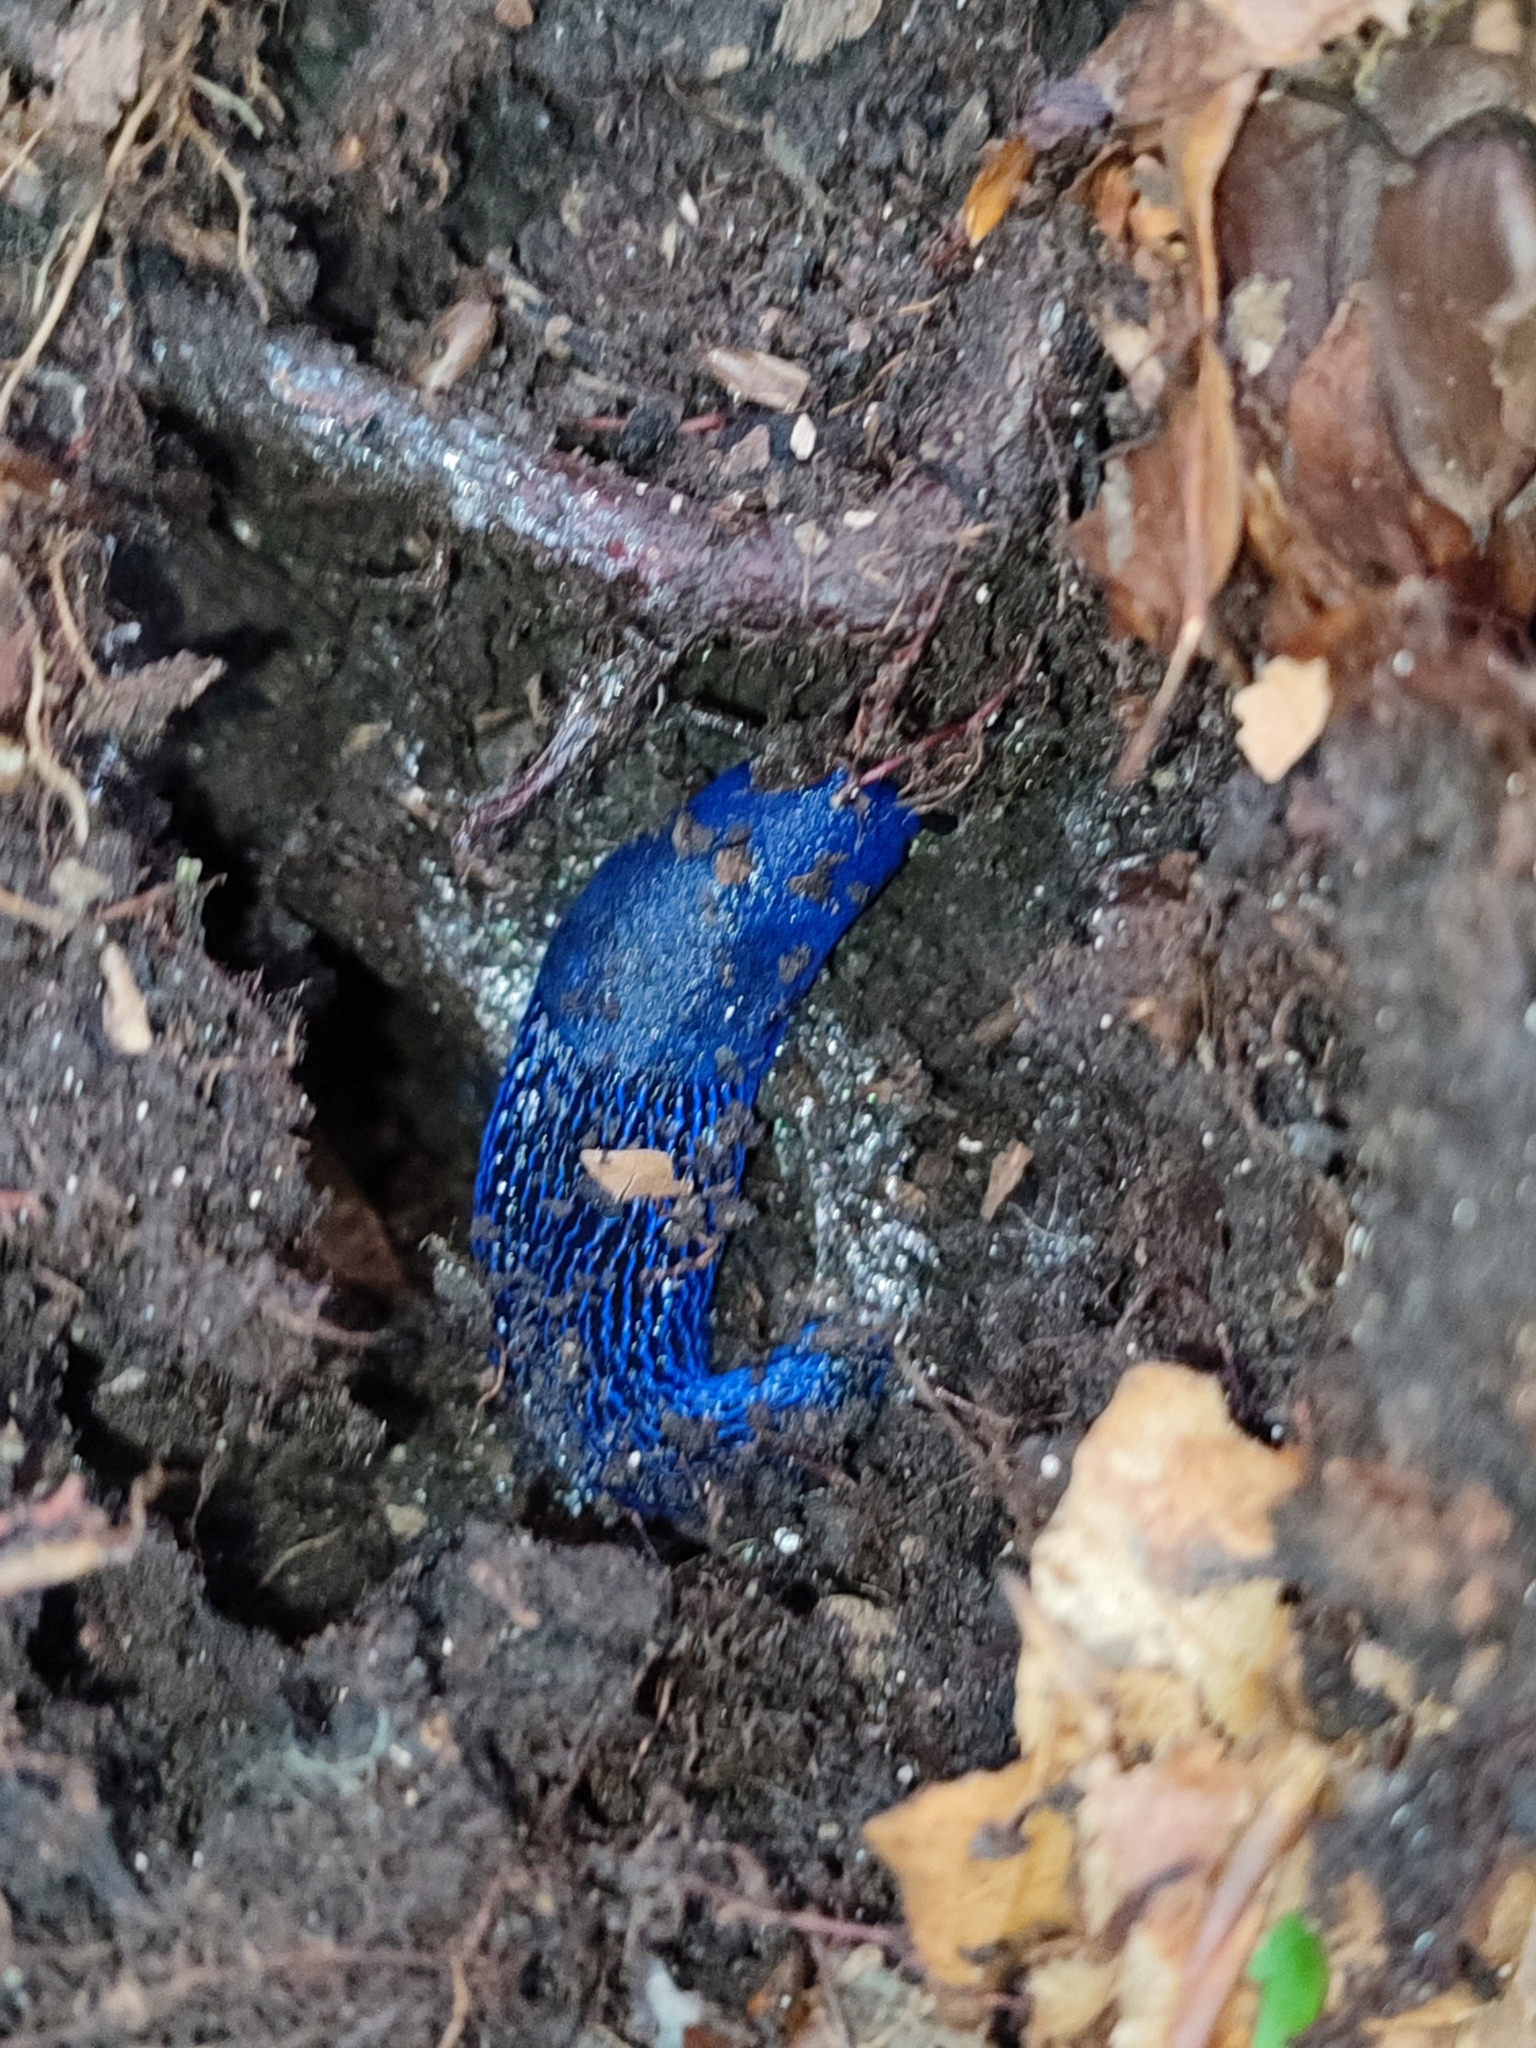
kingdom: Animalia
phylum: Mollusca
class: Gastropoda
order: Stylommatophora
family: Limacidae
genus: Bielzia
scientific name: Bielzia coerulans
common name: Carpathian blue slug
